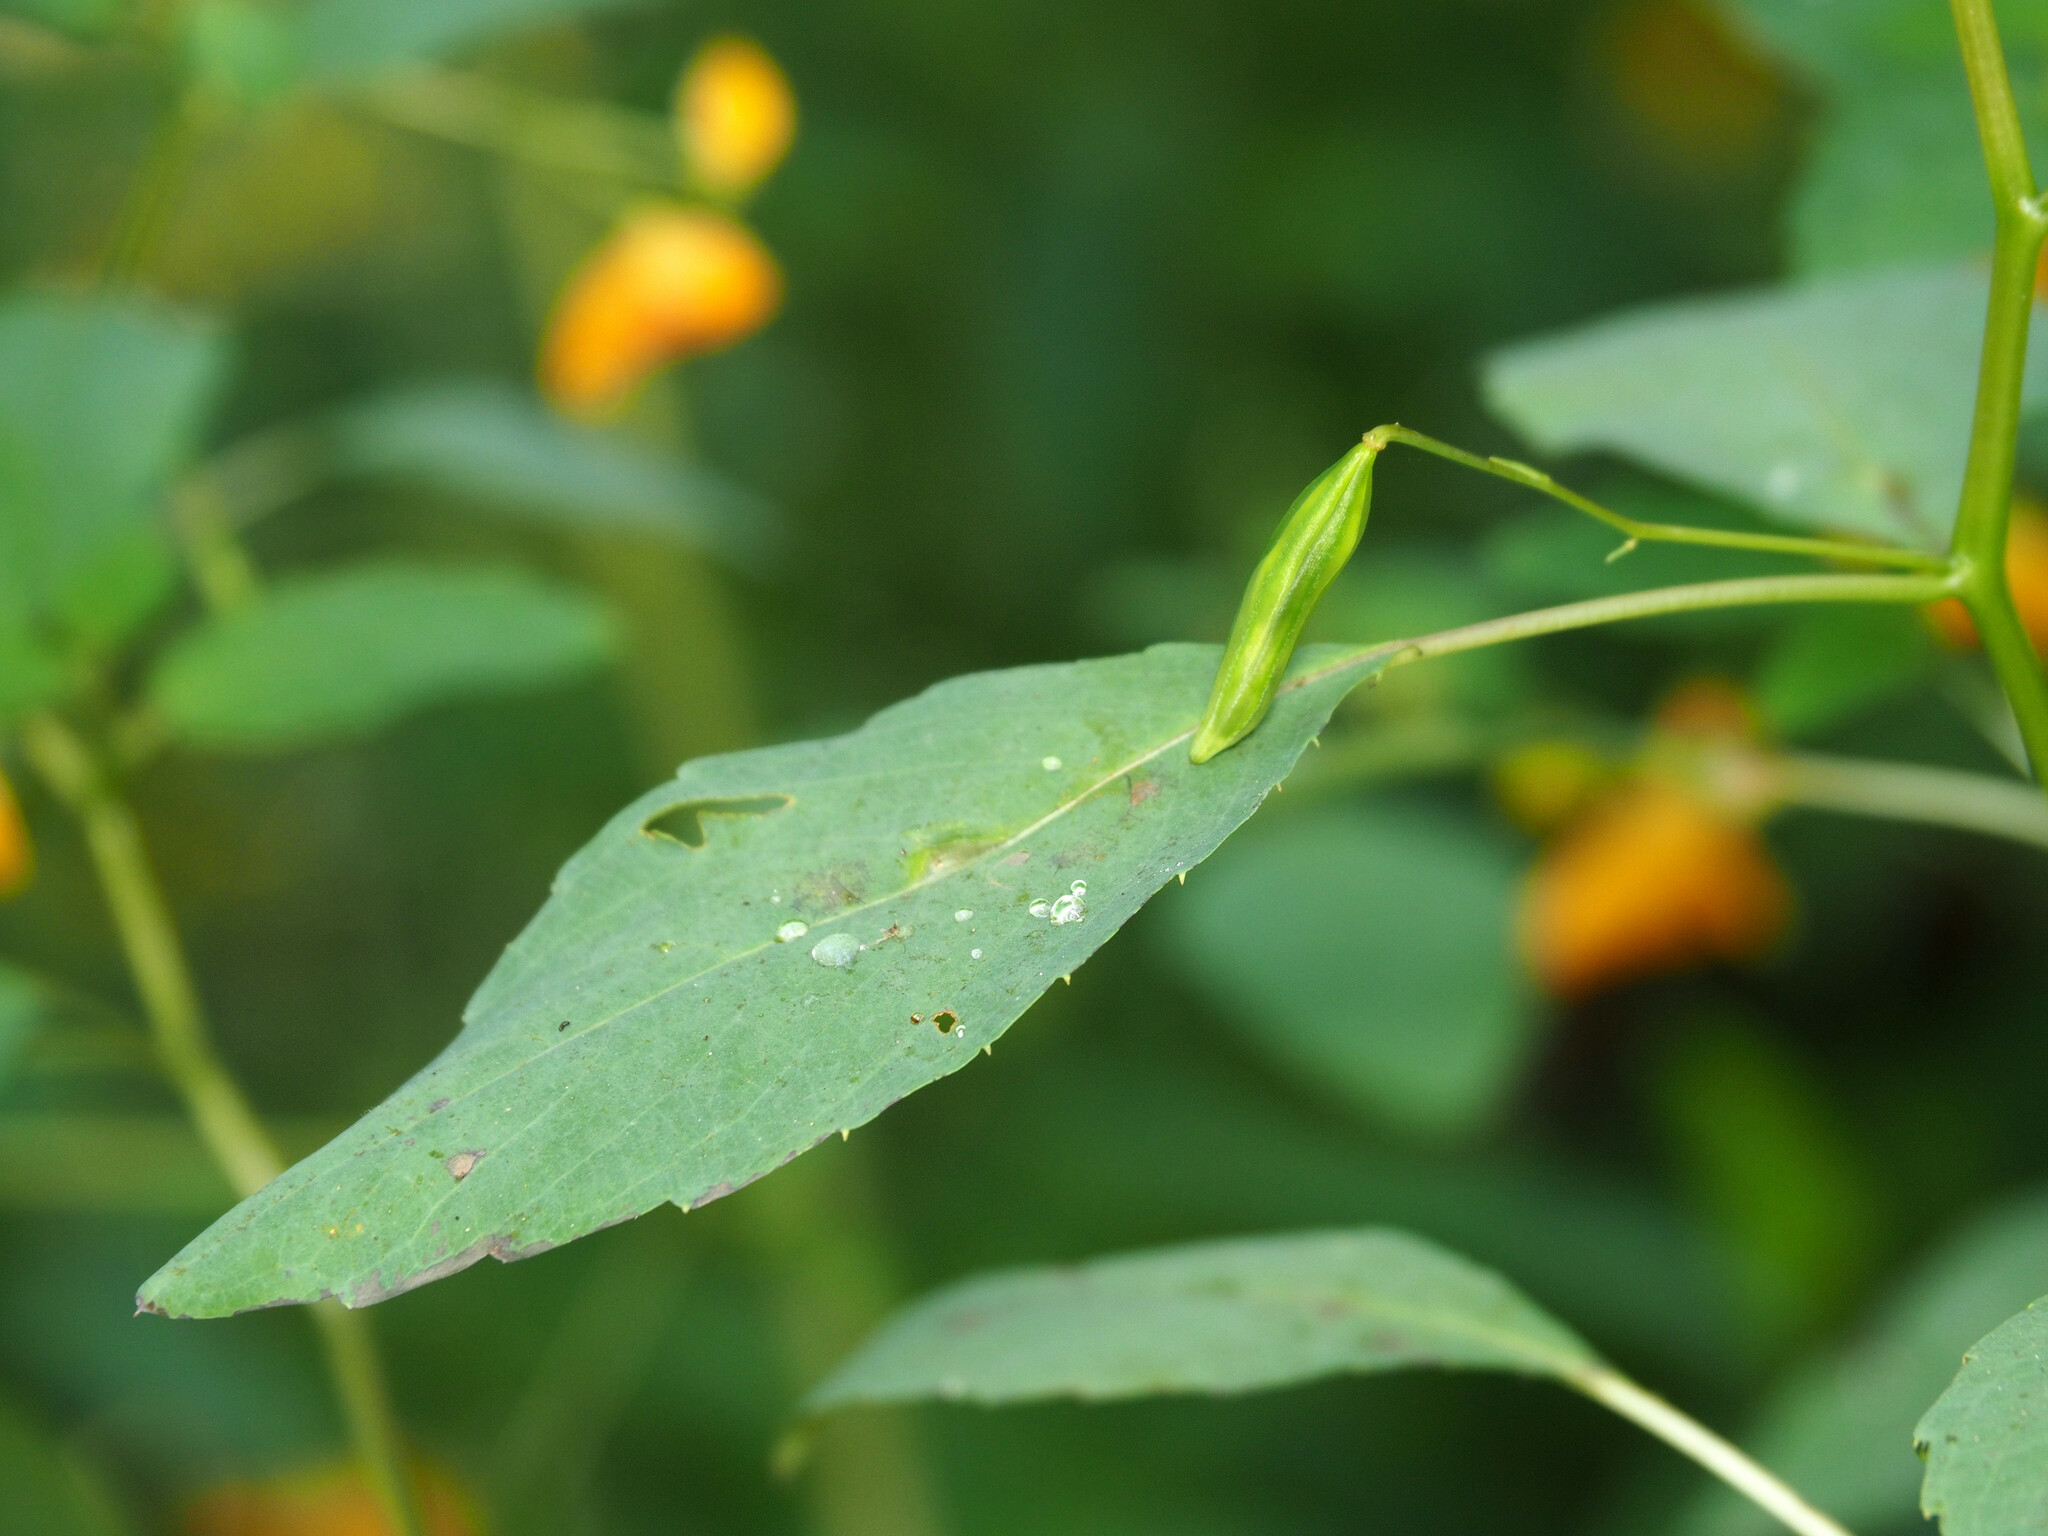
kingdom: Plantae
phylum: Tracheophyta
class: Magnoliopsida
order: Ericales
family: Balsaminaceae
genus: Impatiens
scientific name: Impatiens capensis
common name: Orange balsam
